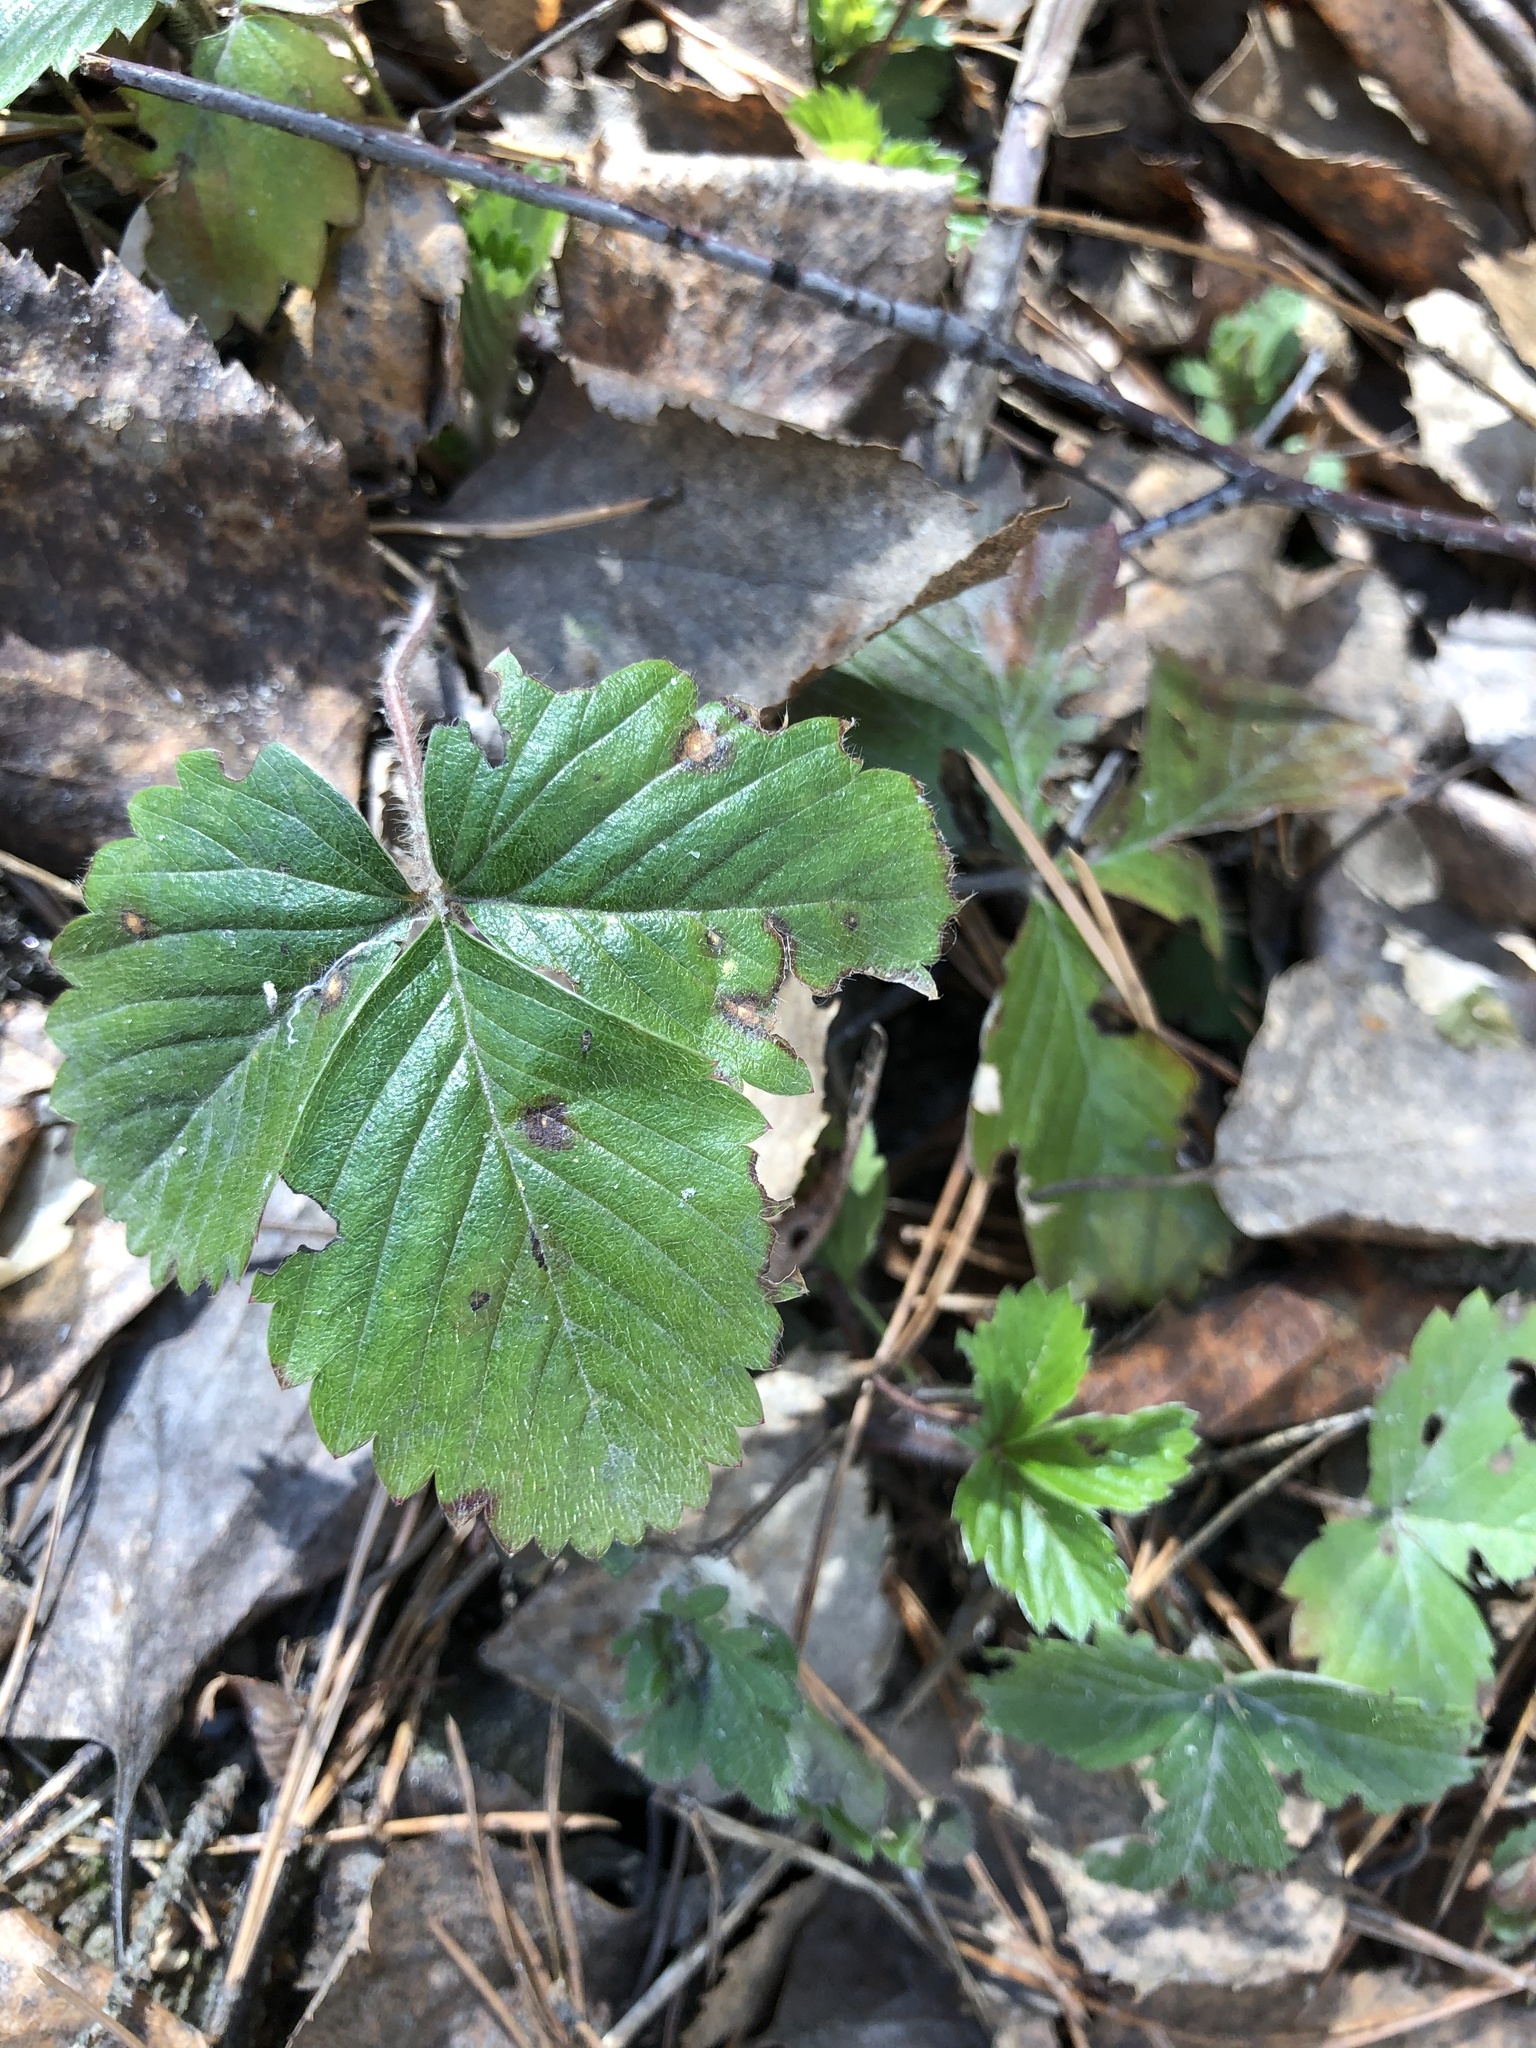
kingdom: Plantae
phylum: Tracheophyta
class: Magnoliopsida
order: Rosales
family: Rosaceae
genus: Fragaria
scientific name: Fragaria vesca
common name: Wild strawberry
